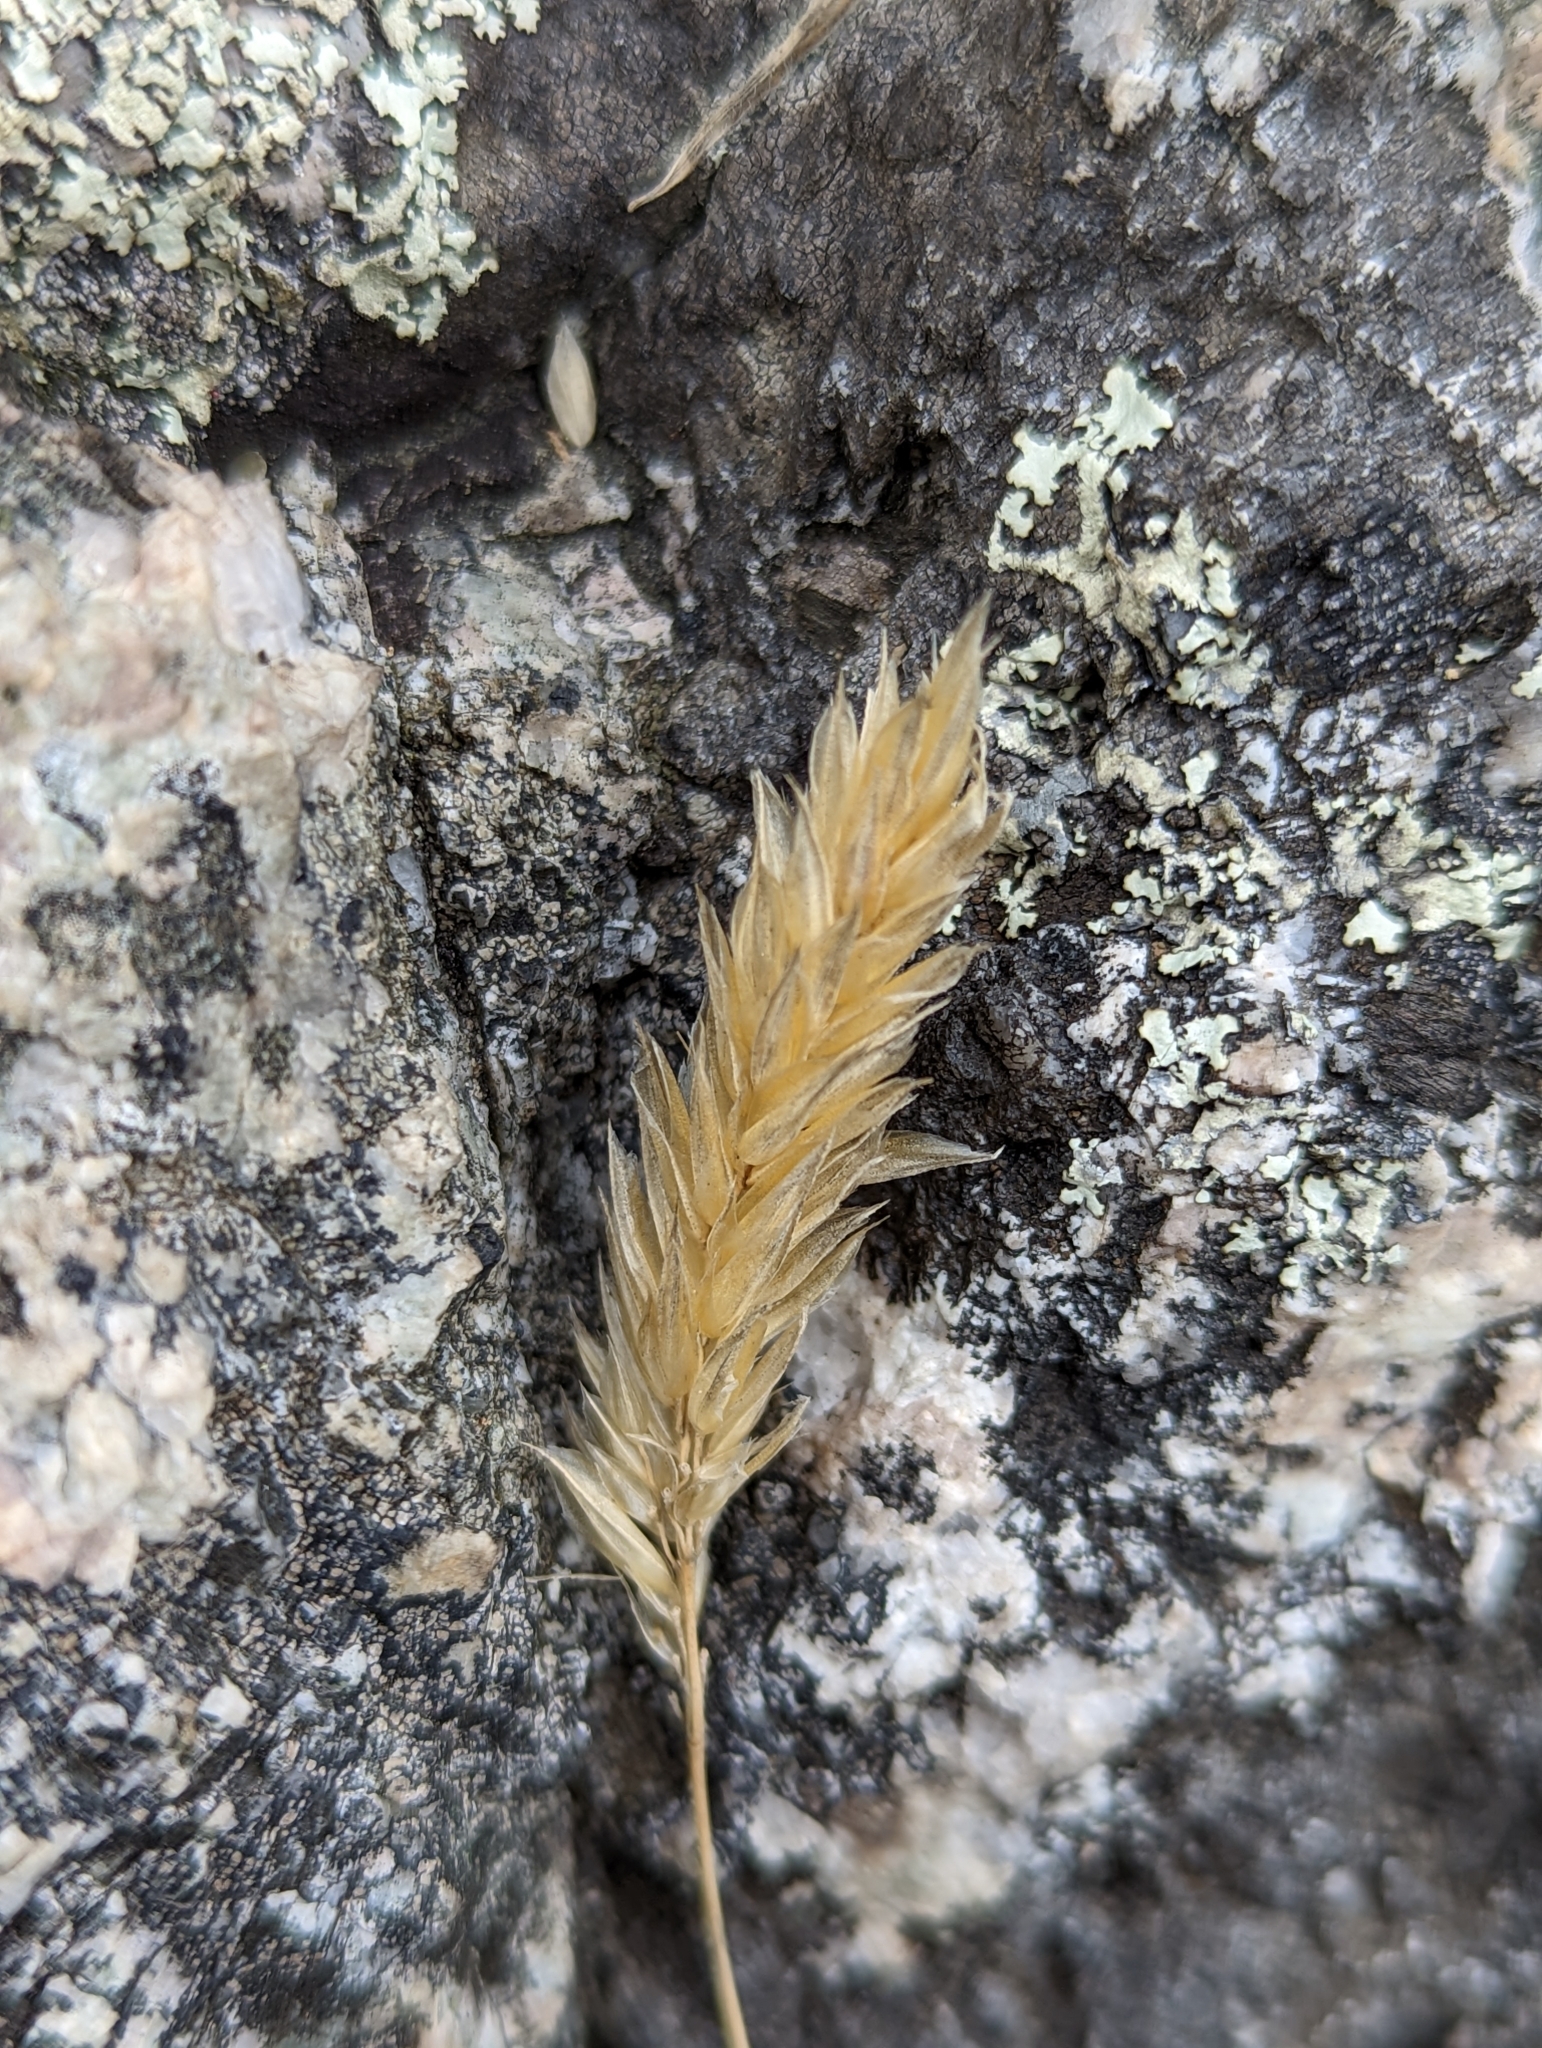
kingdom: Plantae
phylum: Tracheophyta
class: Liliopsida
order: Poales
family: Poaceae
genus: Anthoxanthum
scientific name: Anthoxanthum odoratum
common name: Sweet vernalgrass
